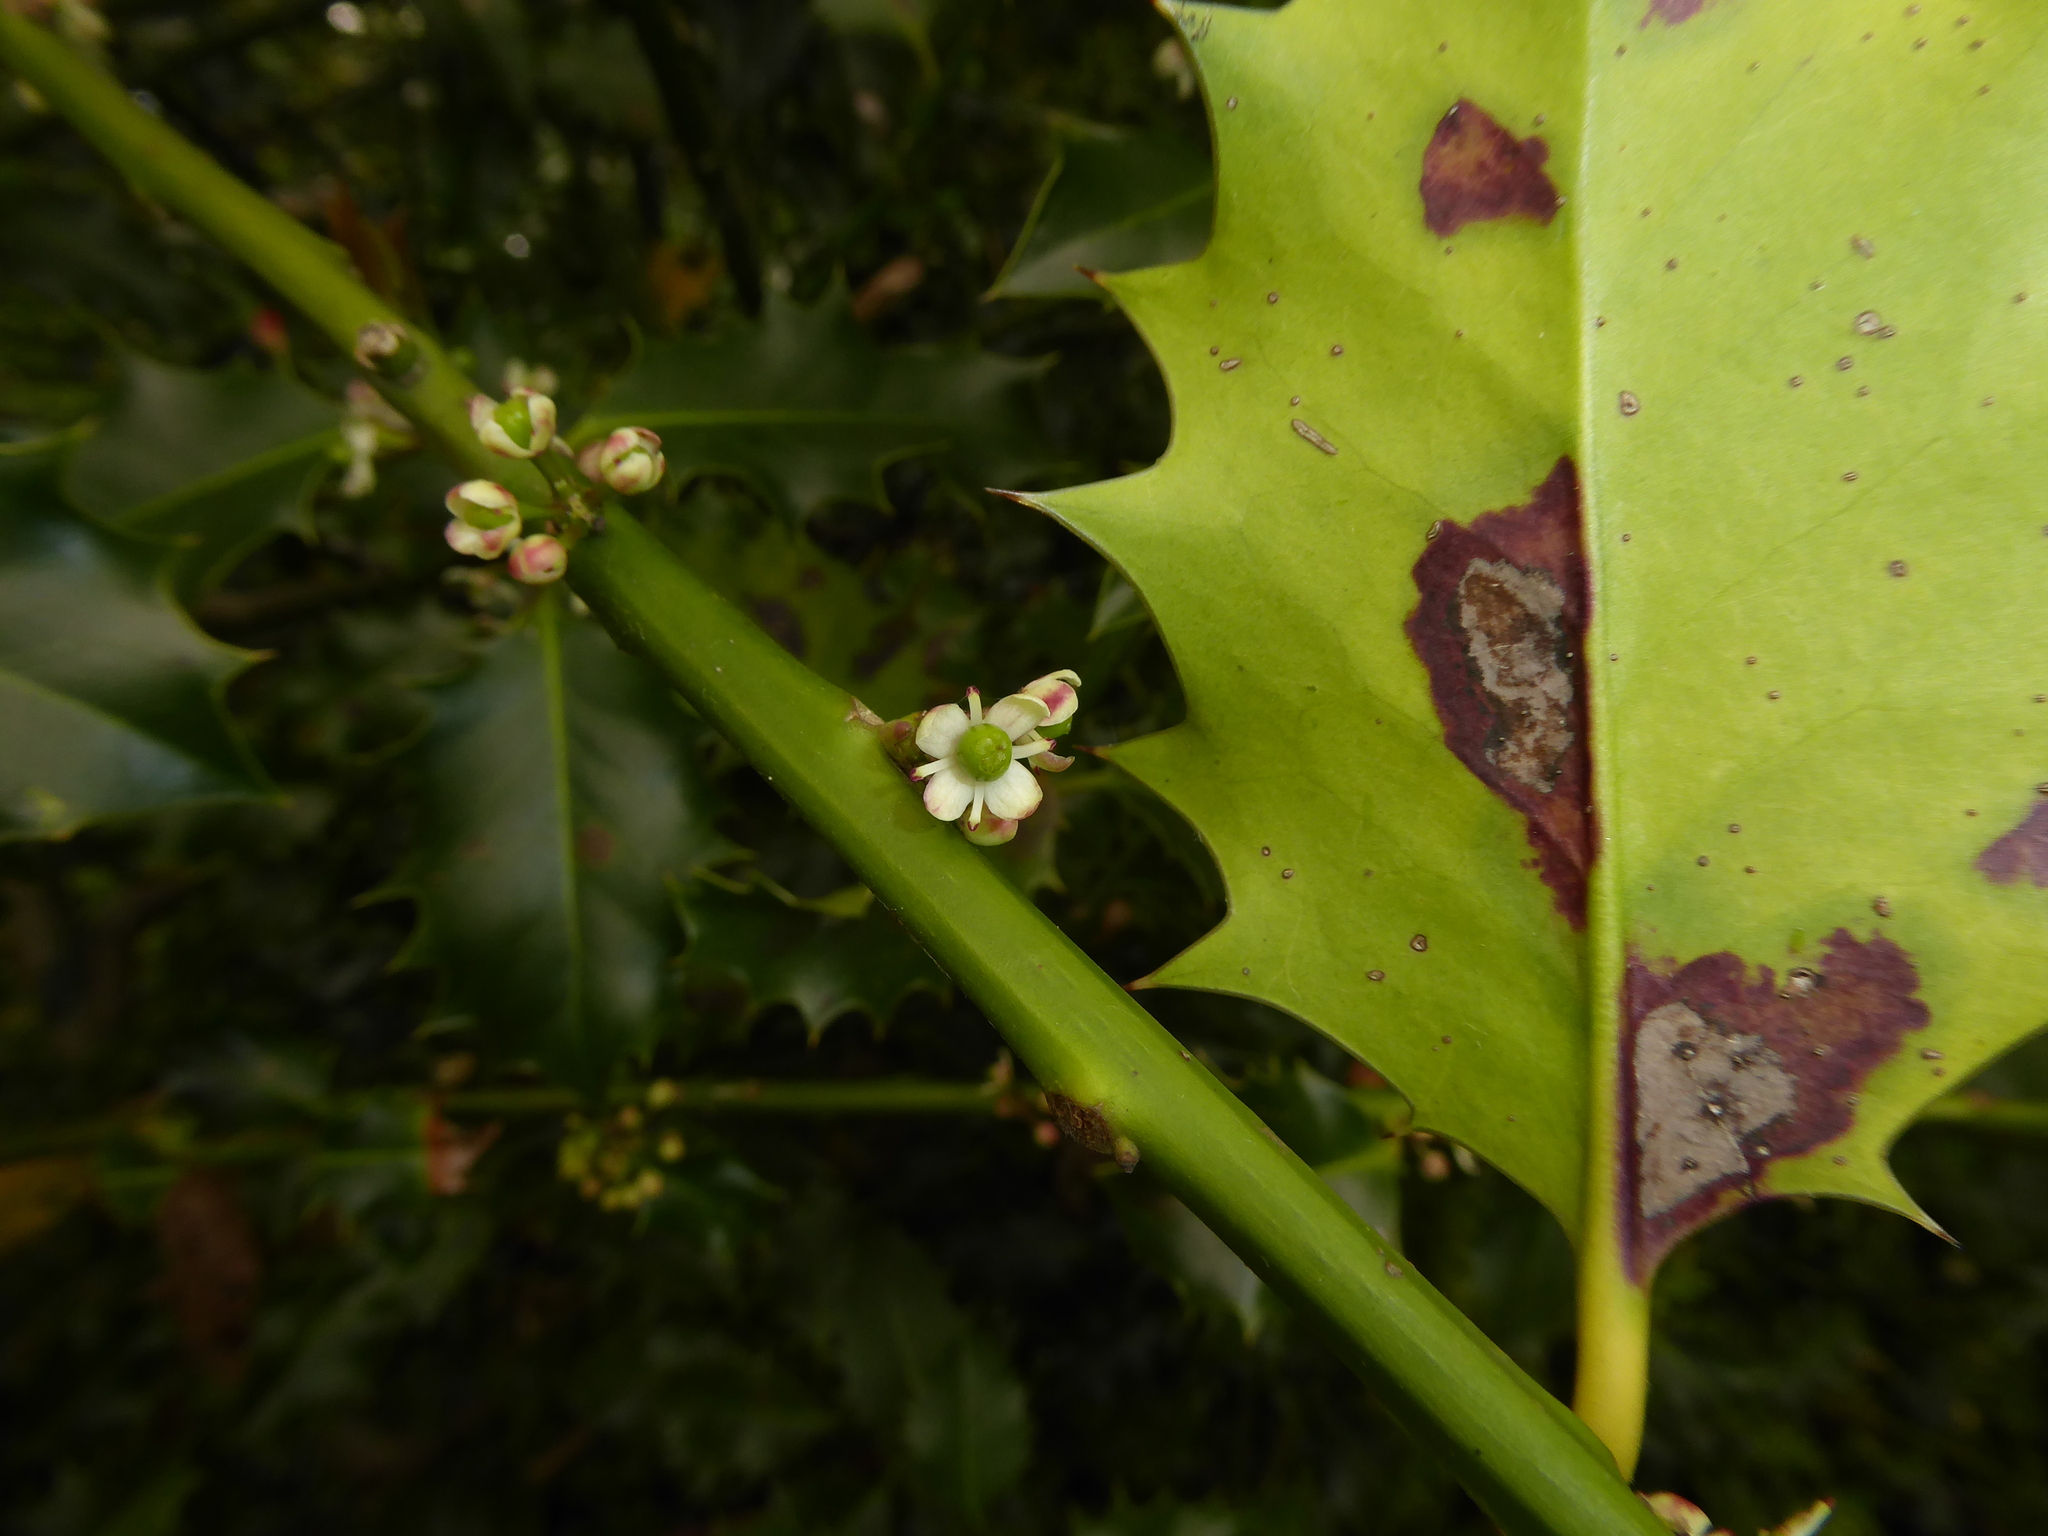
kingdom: Plantae
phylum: Tracheophyta
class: Magnoliopsida
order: Aquifoliales
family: Aquifoliaceae
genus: Ilex
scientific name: Ilex aquifolium
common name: English holly
